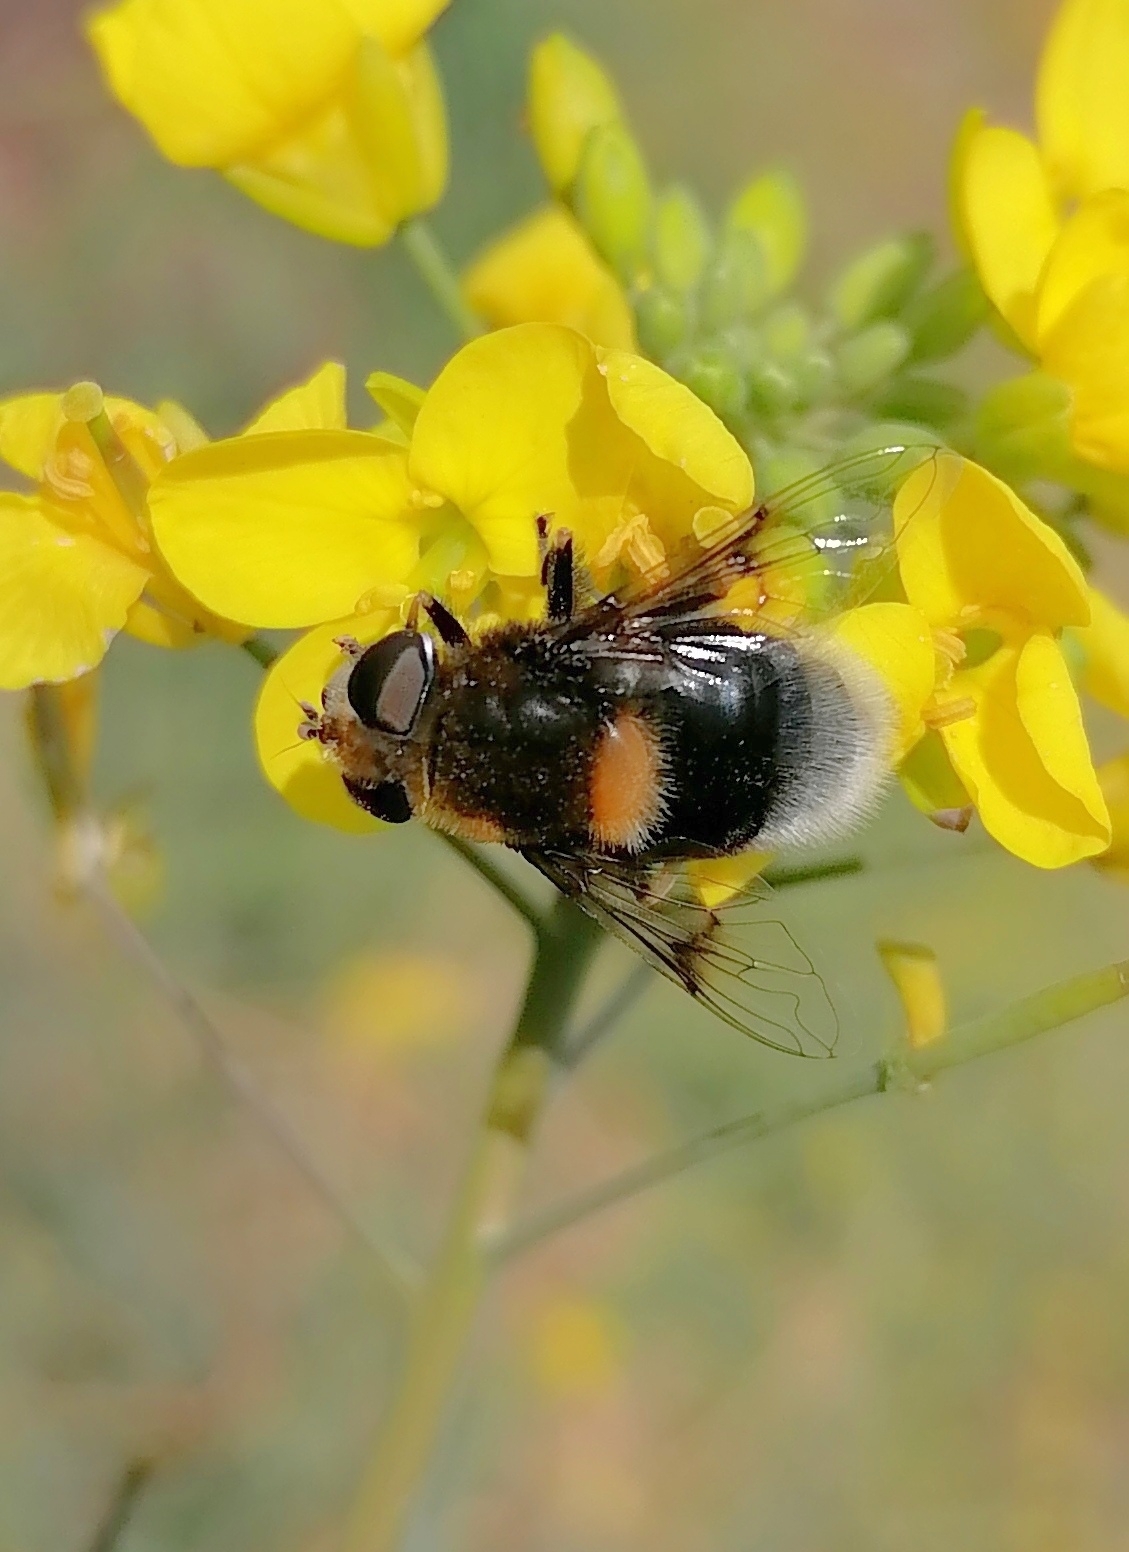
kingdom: Animalia
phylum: Arthropoda
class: Insecta
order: Diptera
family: Syrphidae
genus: Eristalis
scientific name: Eristalis intricaria
